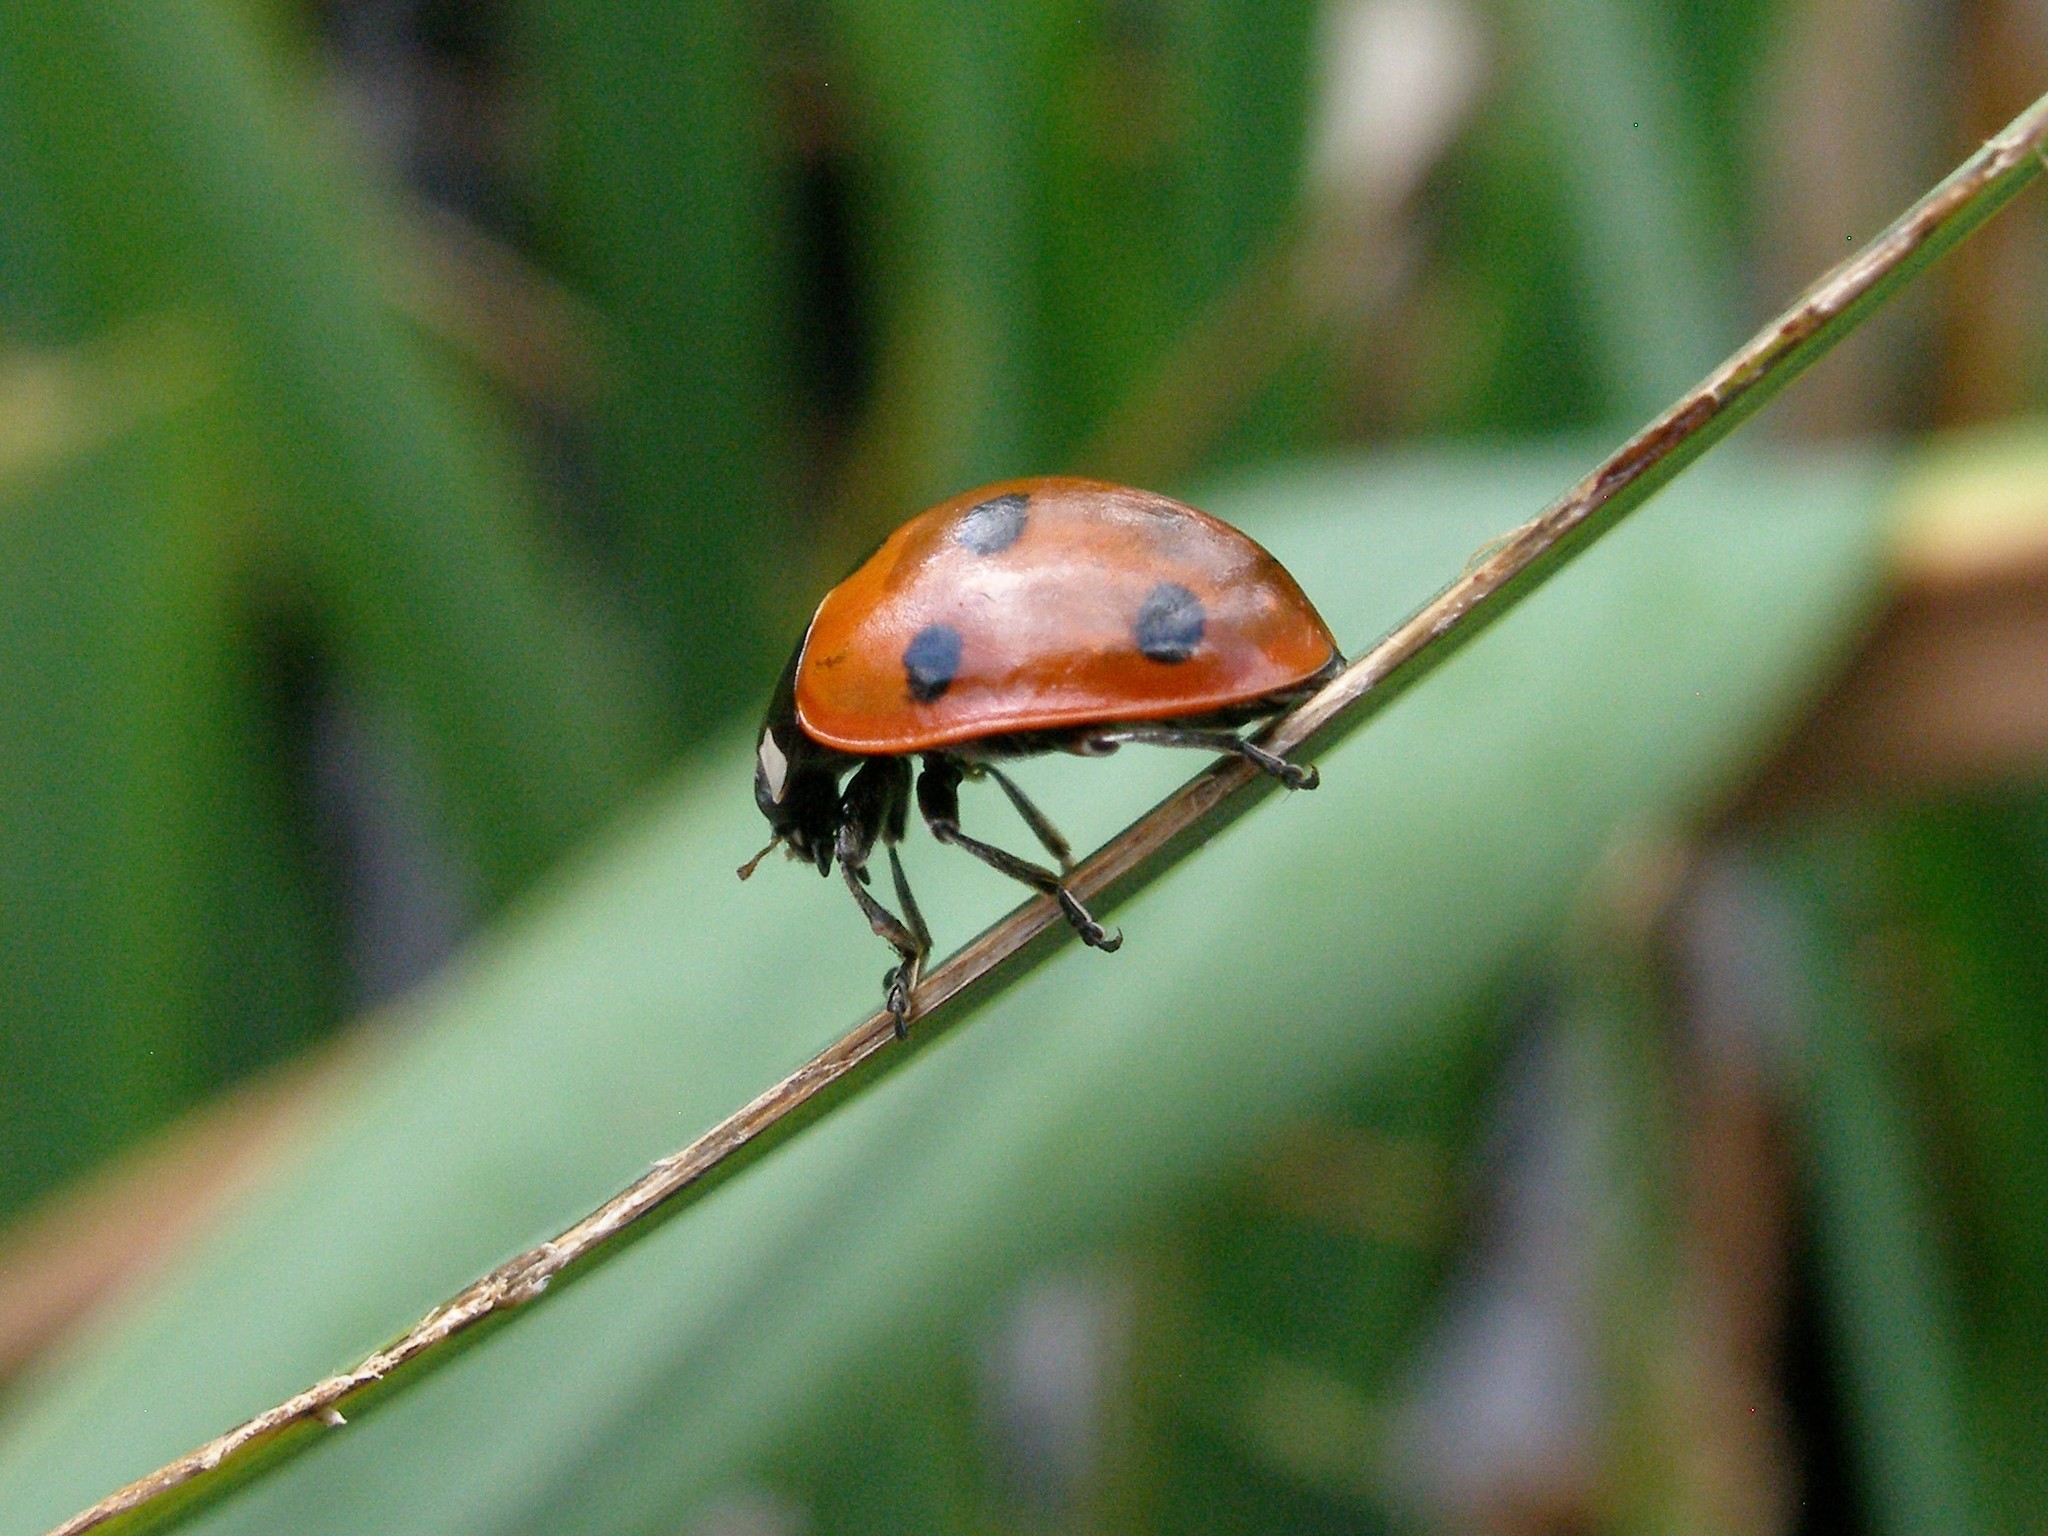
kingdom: Animalia
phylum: Arthropoda
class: Insecta
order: Coleoptera
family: Coccinellidae
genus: Coccinella
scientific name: Coccinella septempunctata
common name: Sevenspotted lady beetle
